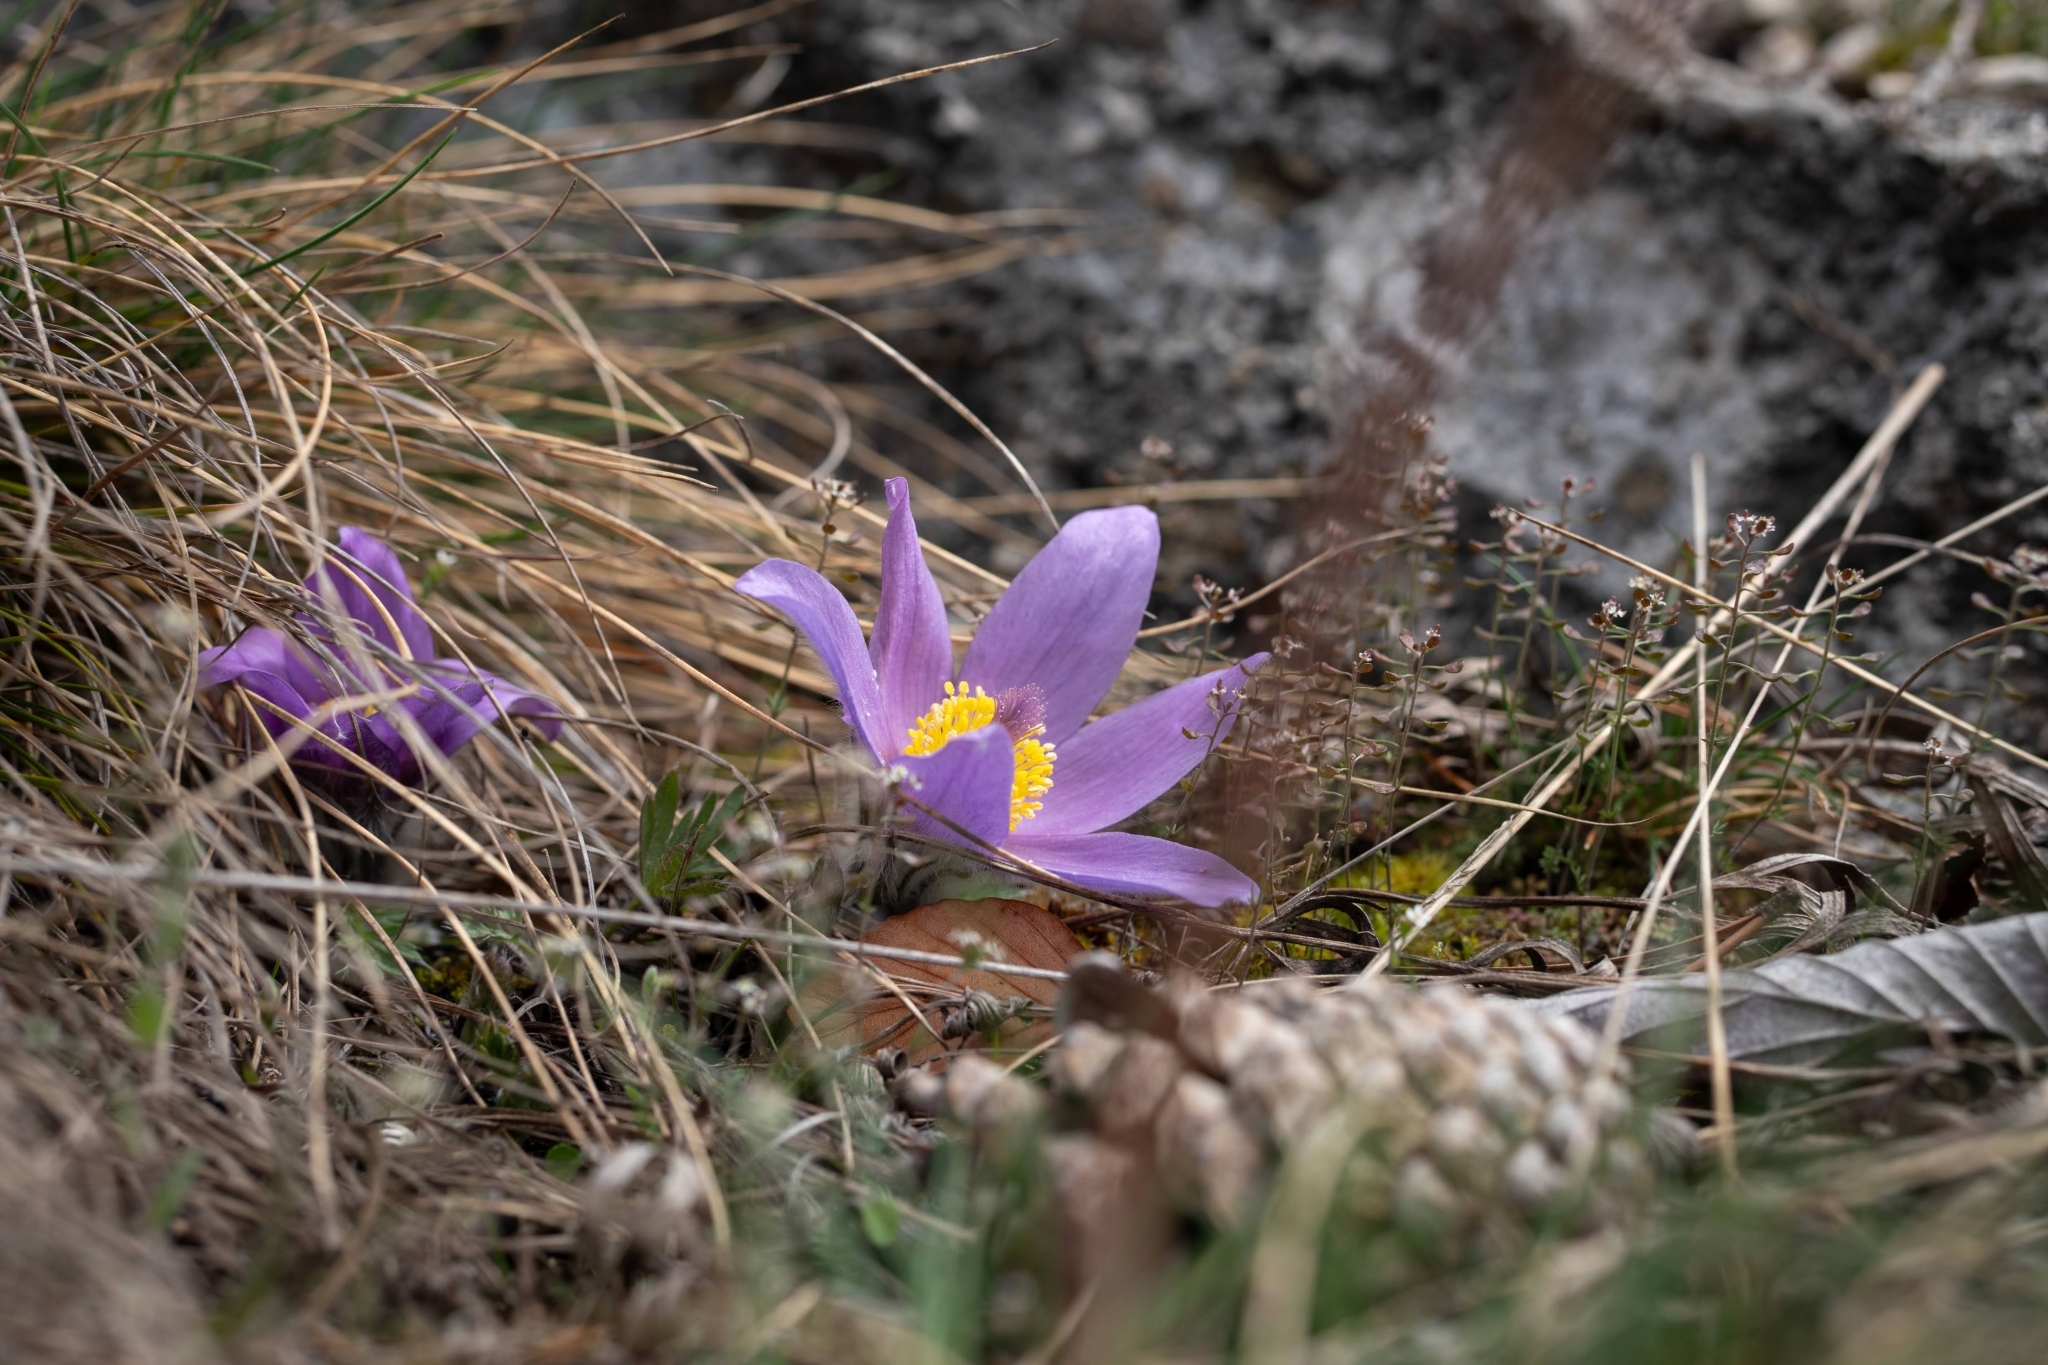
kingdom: Plantae
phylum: Tracheophyta
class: Magnoliopsida
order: Ranunculales
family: Ranunculaceae
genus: Pulsatilla
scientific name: Pulsatilla grandis
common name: Greater pasque flower
